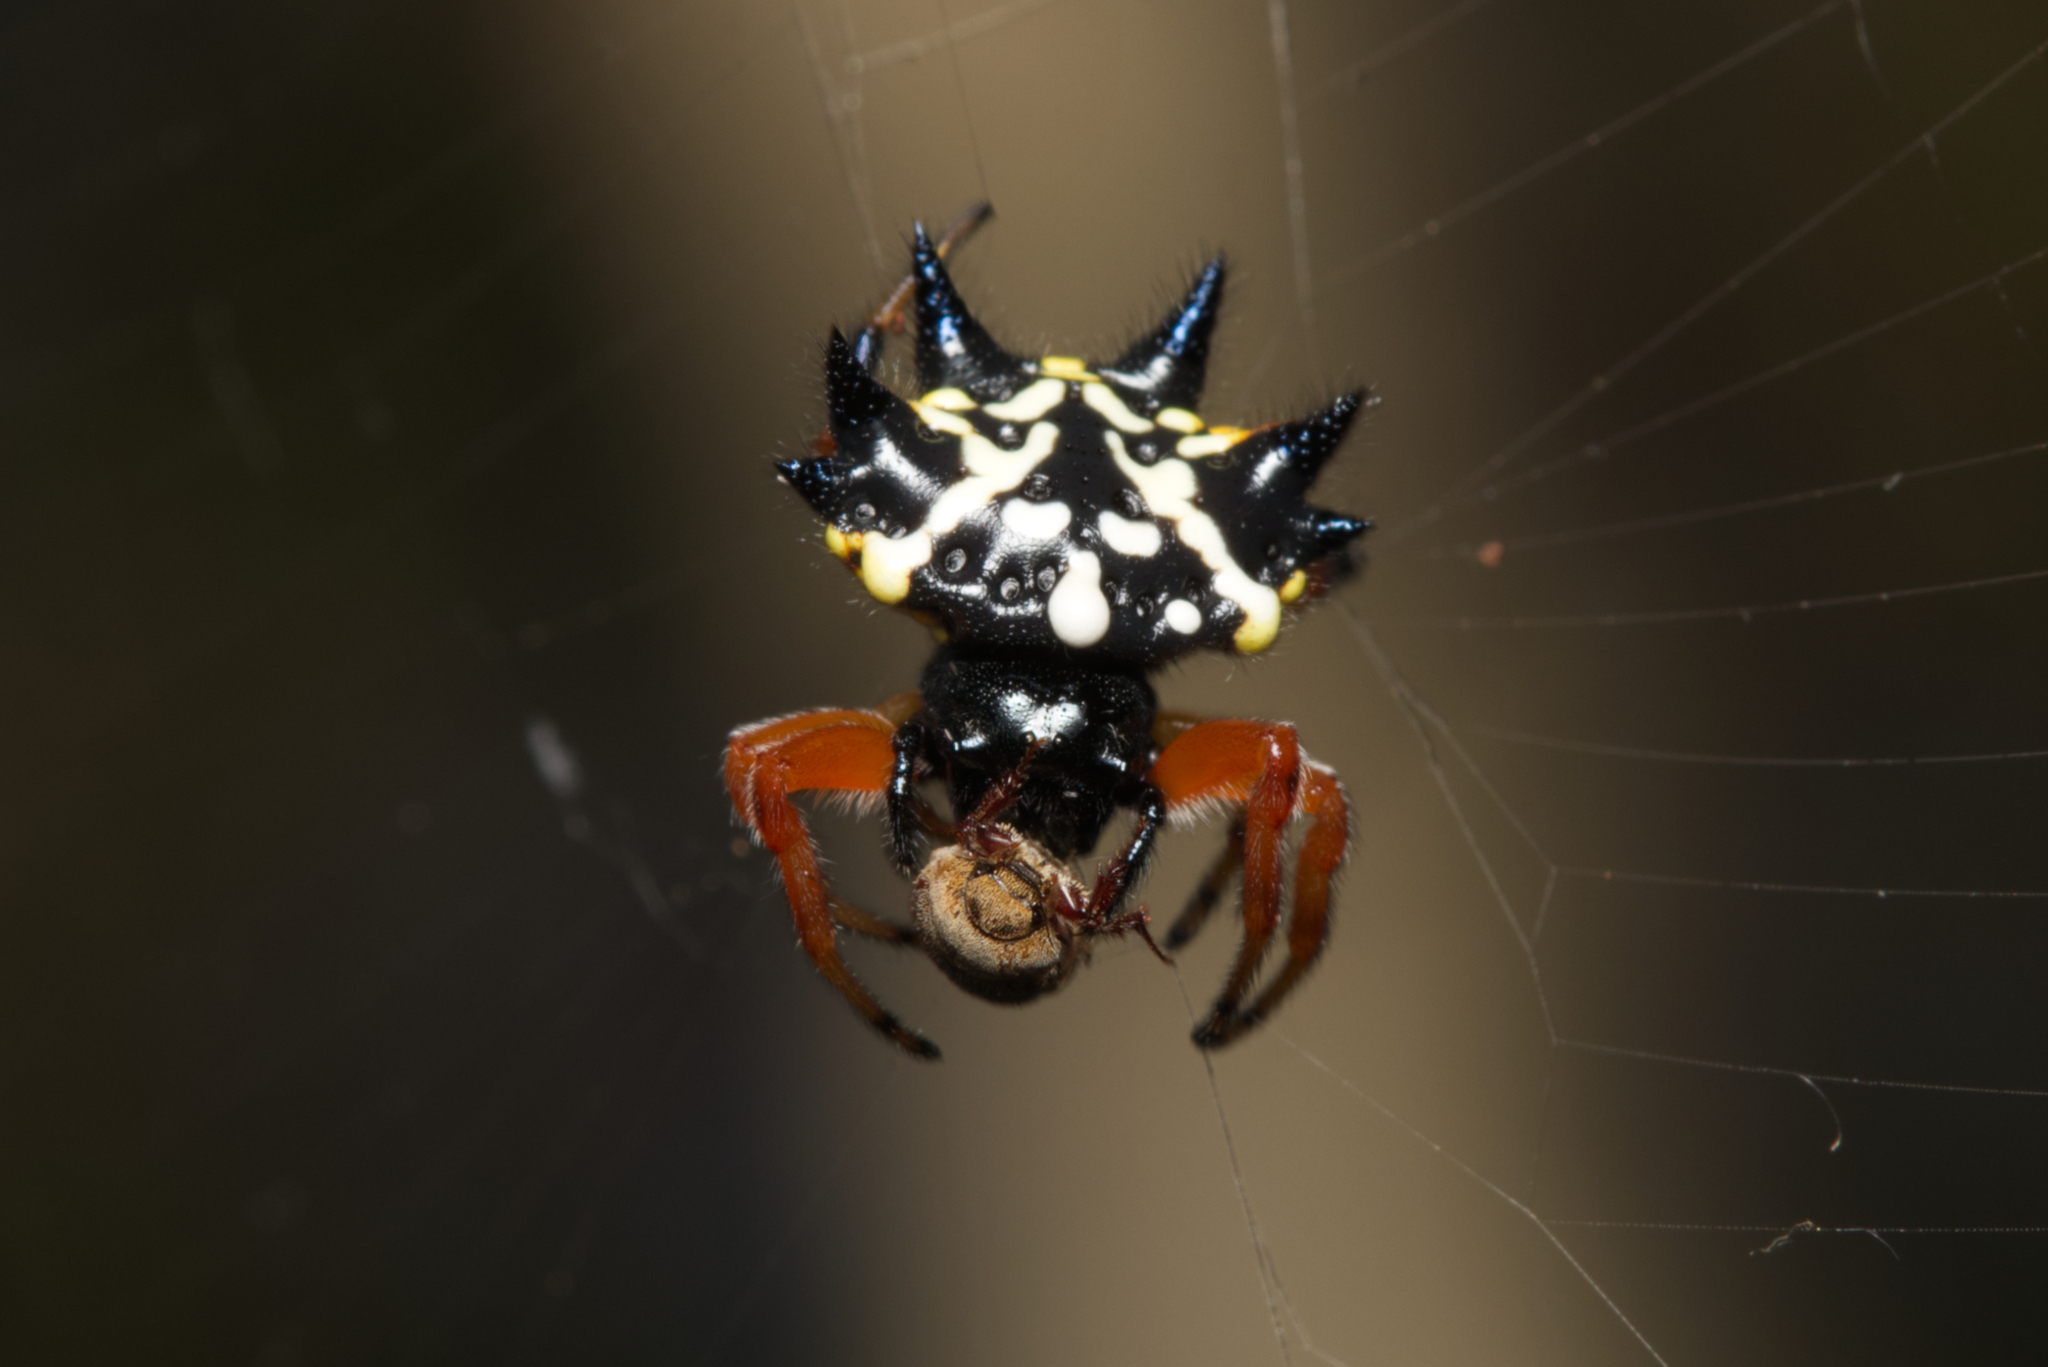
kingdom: Animalia
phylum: Arthropoda
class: Arachnida
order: Araneae
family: Araneidae
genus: Austracantha
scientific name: Austracantha minax
